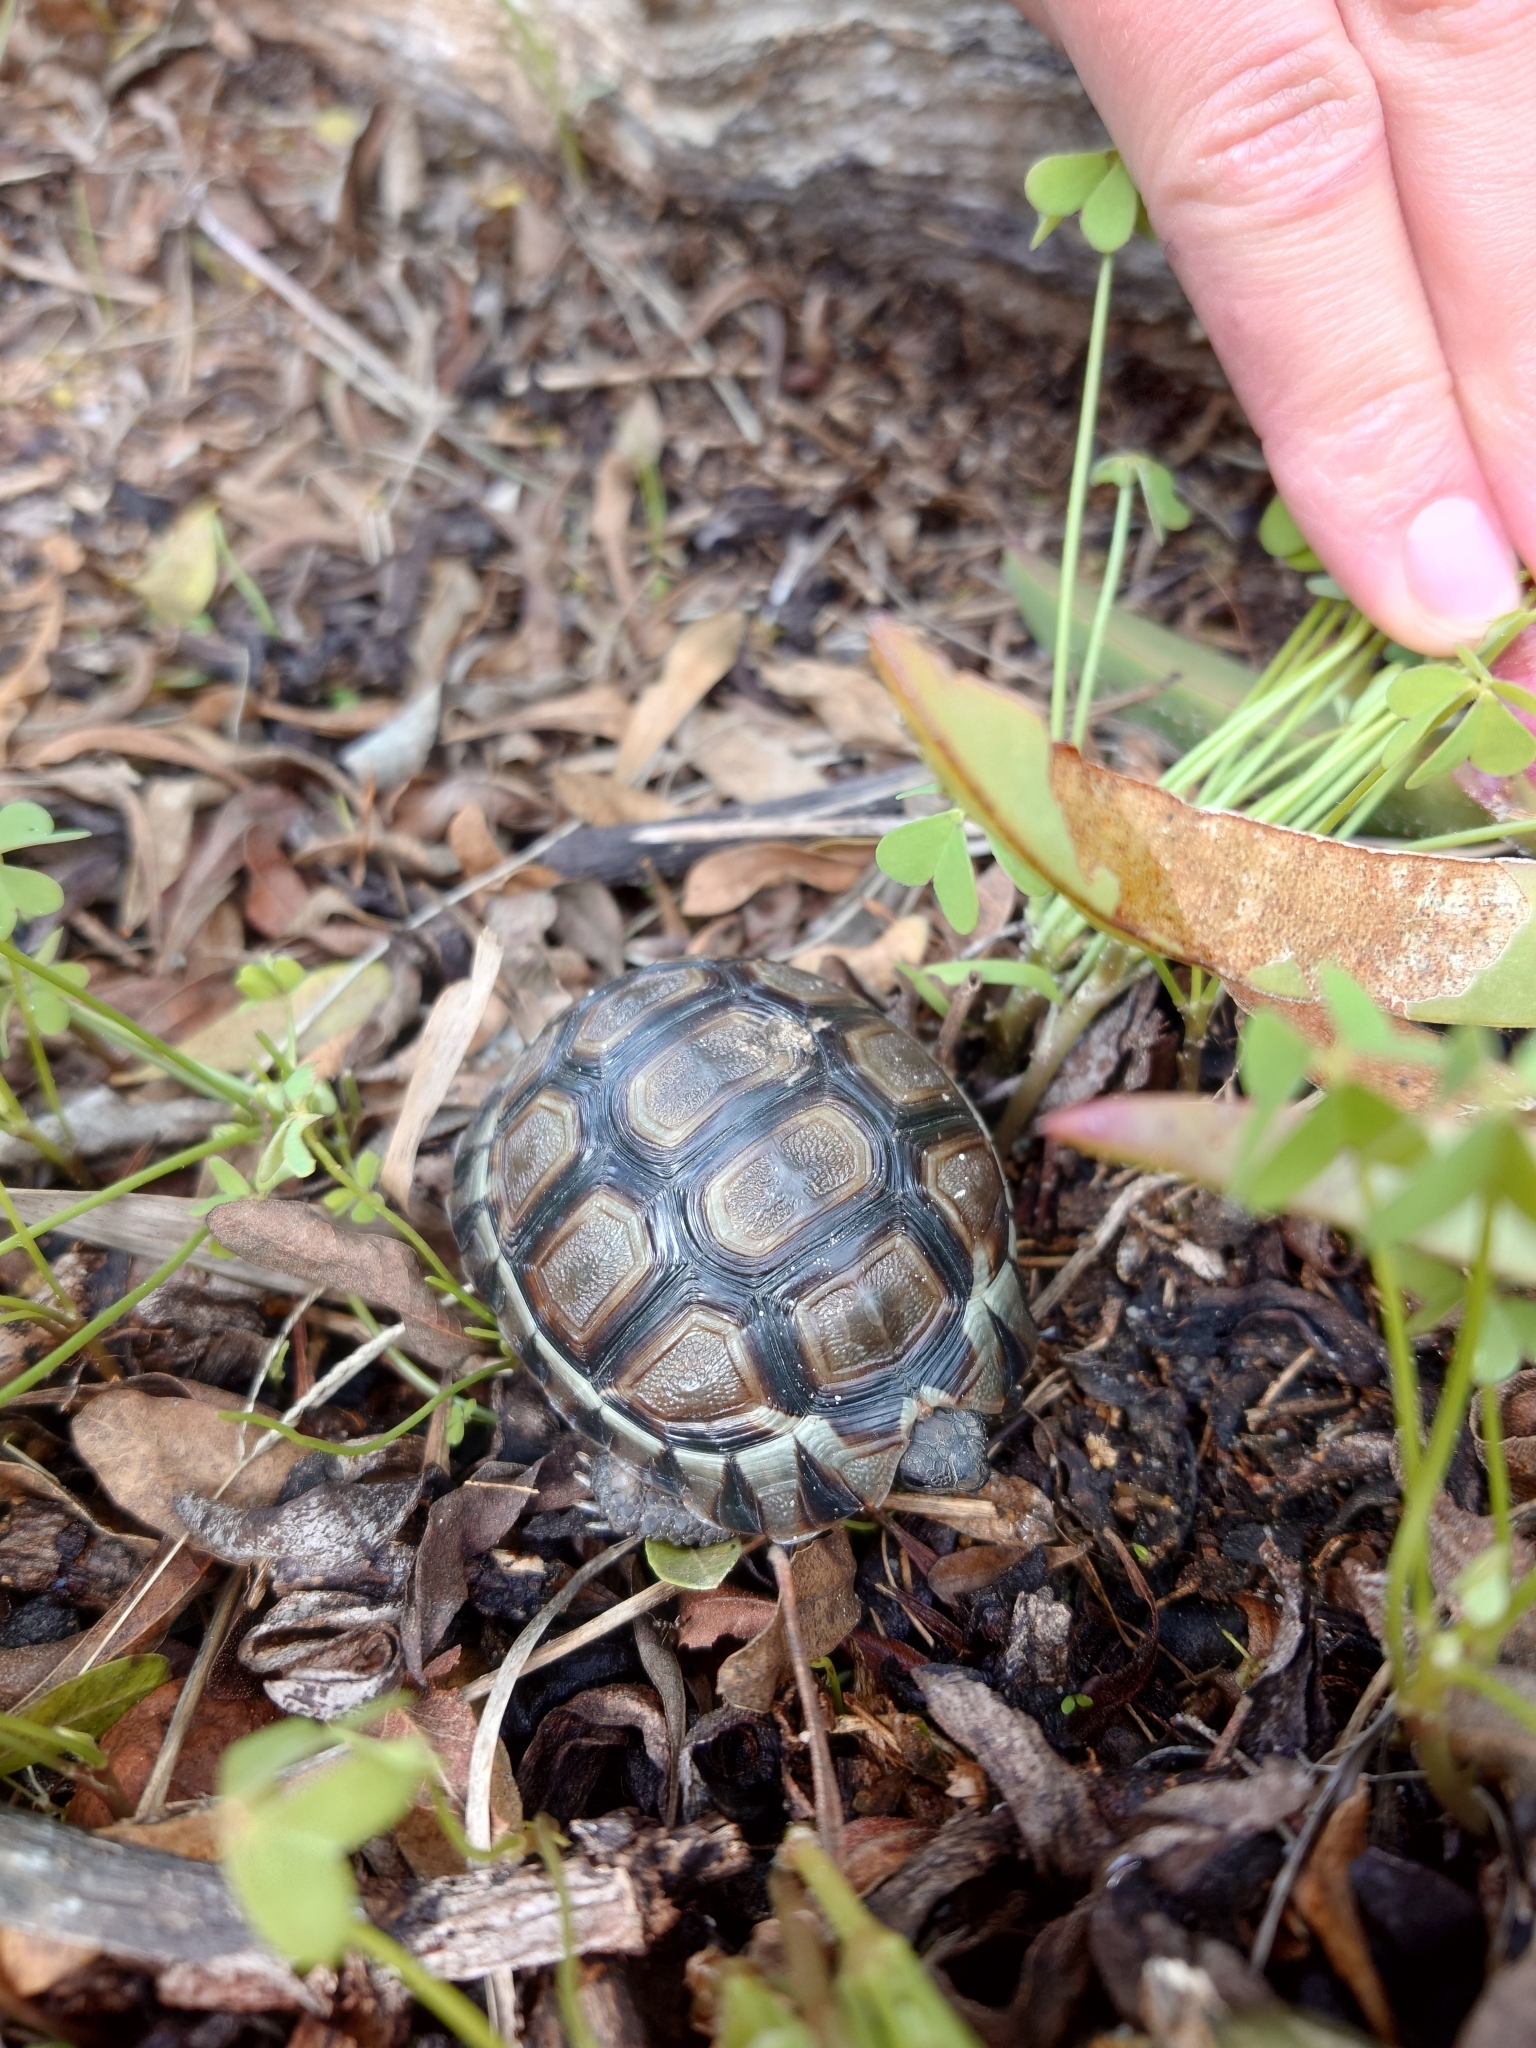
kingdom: Animalia
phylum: Chordata
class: Testudines
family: Testudinidae
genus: Chersina
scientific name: Chersina angulata
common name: South african bowsprit tortoise
